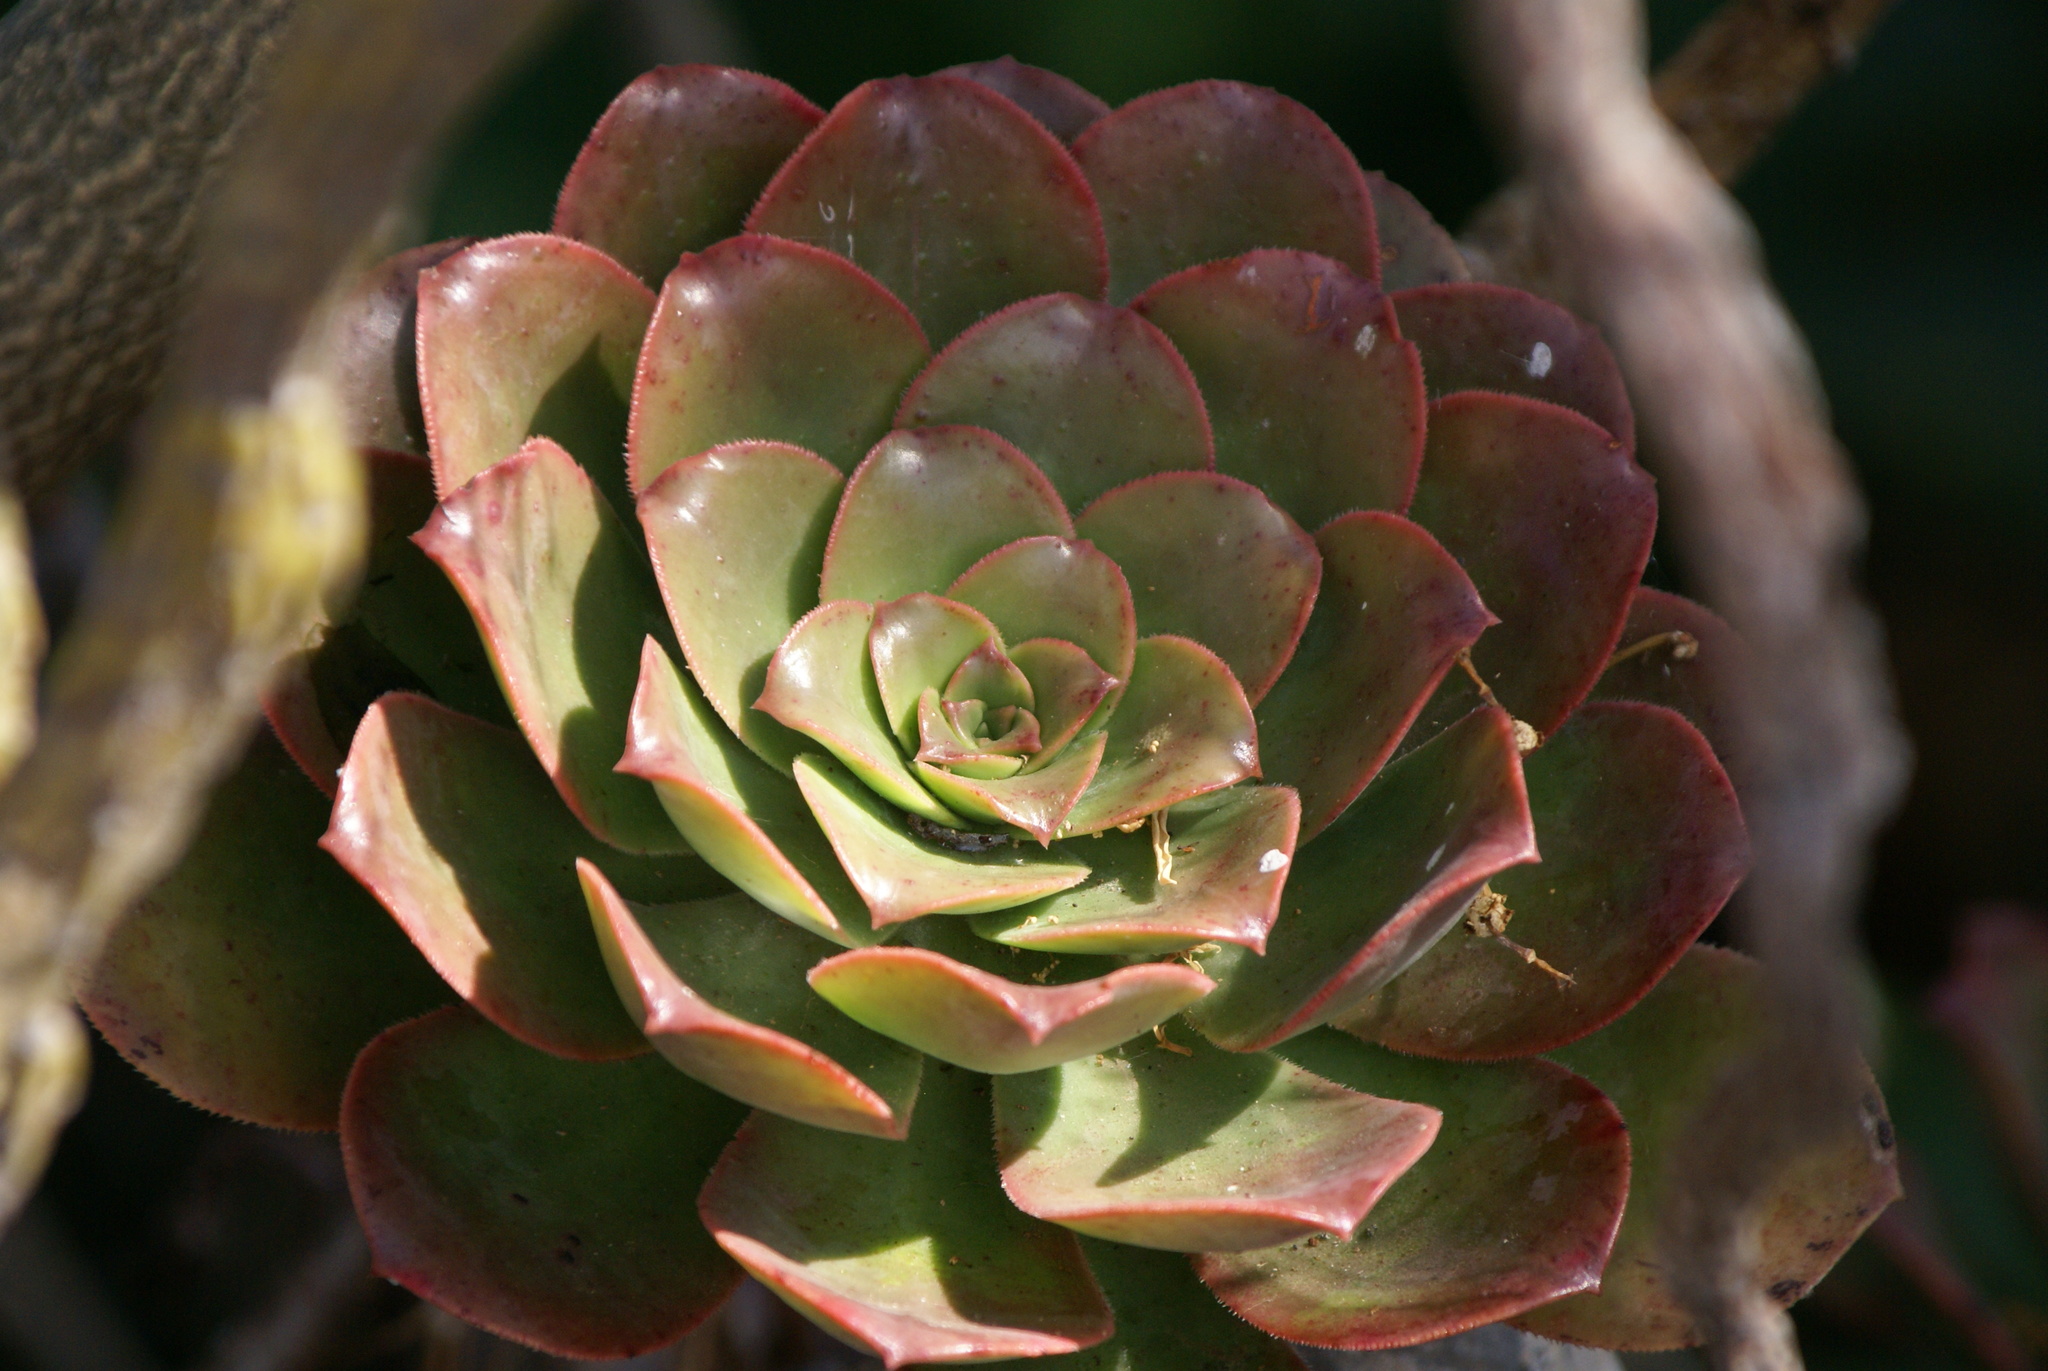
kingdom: Plantae
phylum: Tracheophyta
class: Magnoliopsida
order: Saxifragales
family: Crassulaceae
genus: Aeonium
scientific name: Aeonium davidbramwellii
